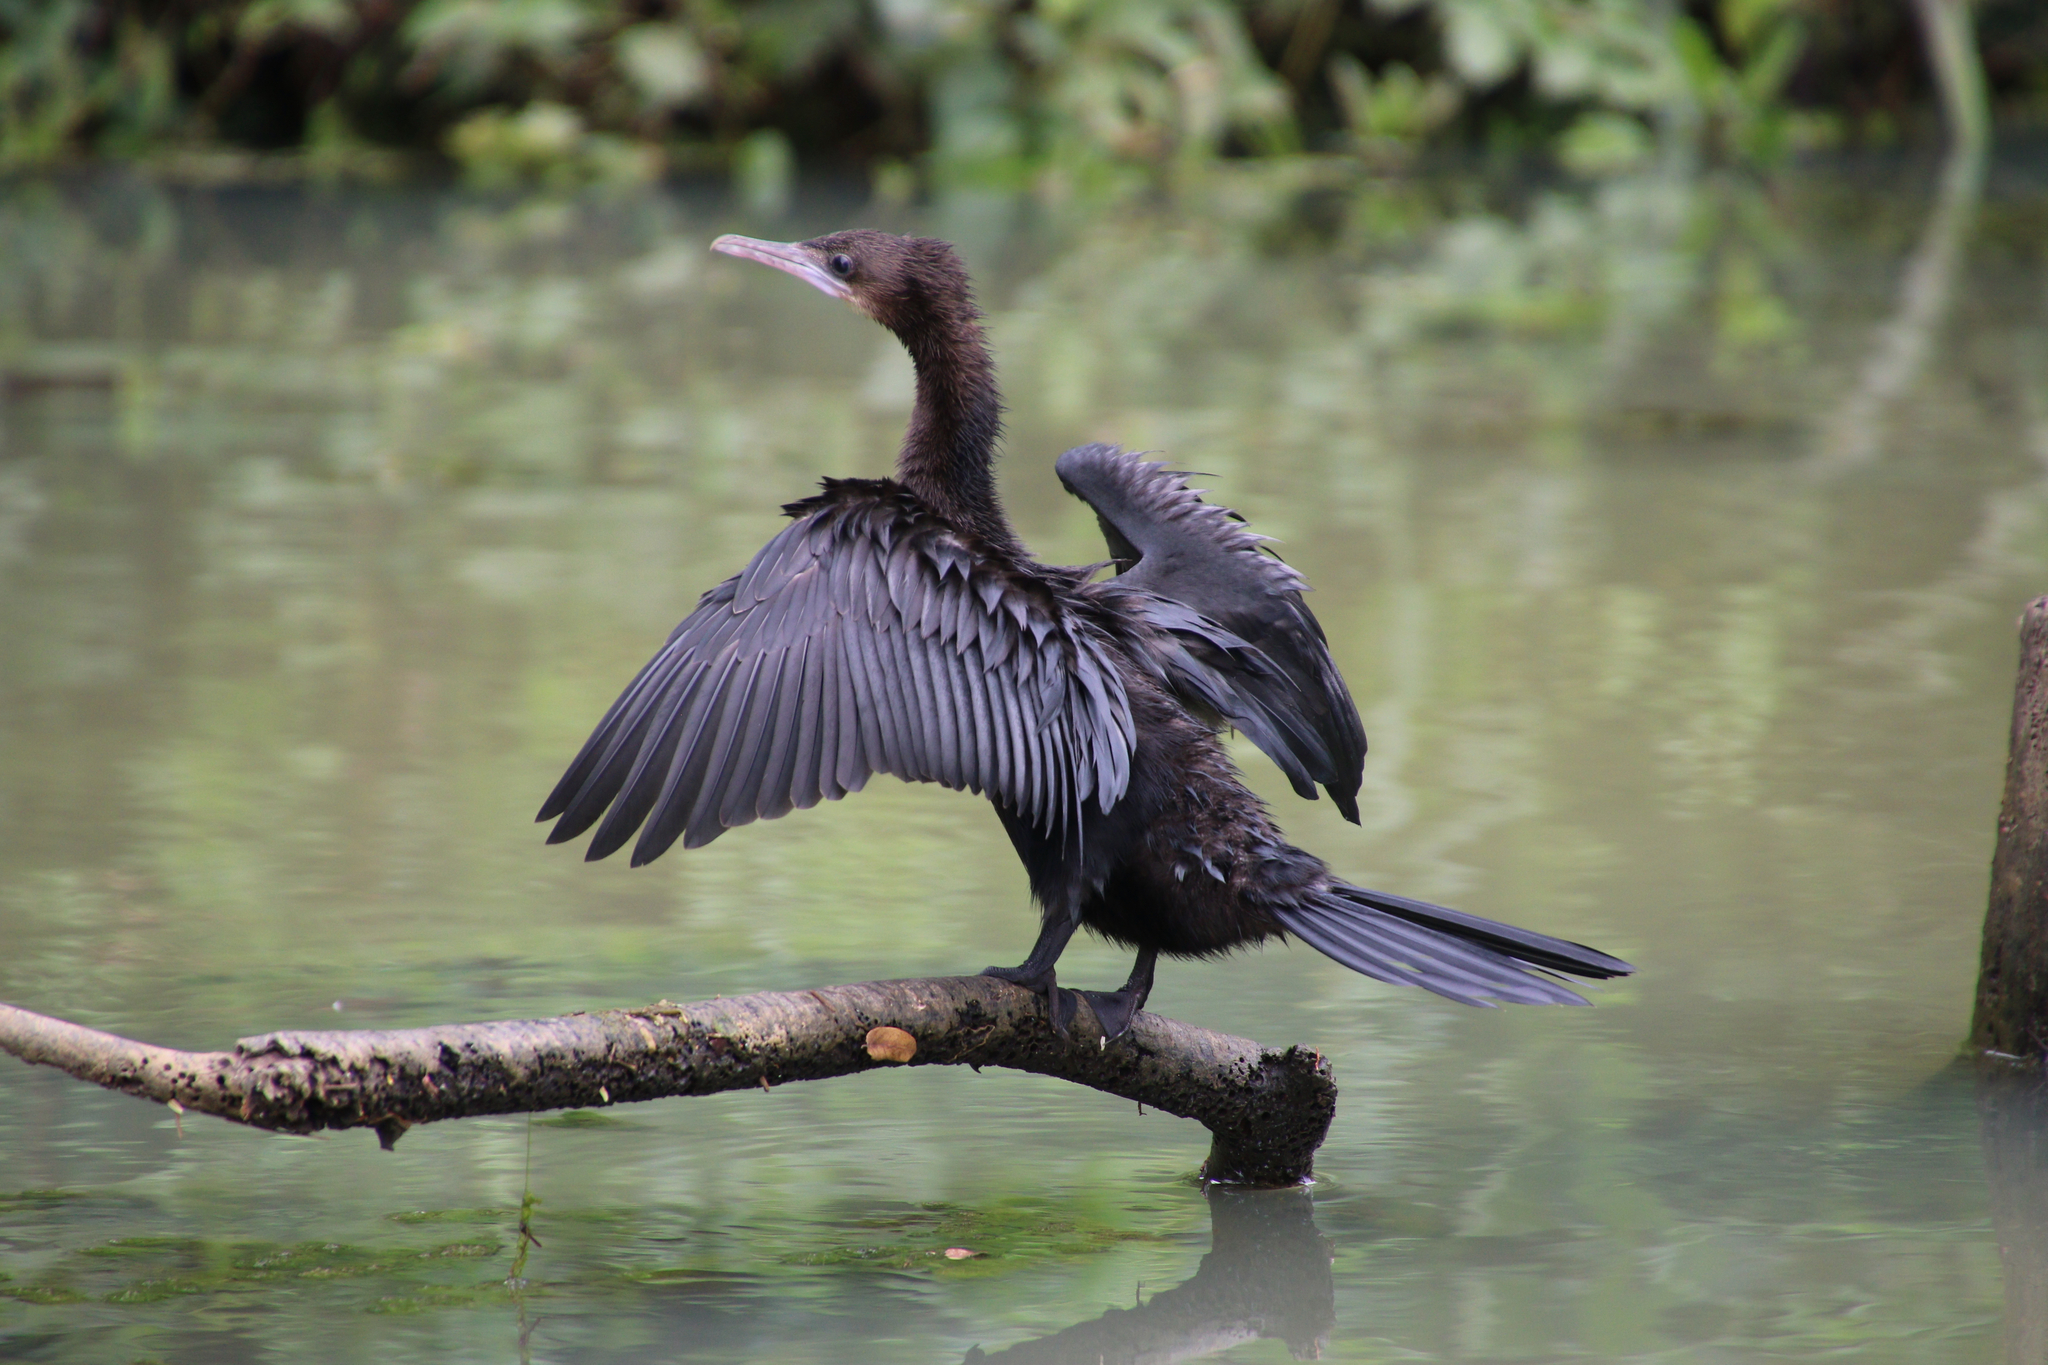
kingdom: Animalia
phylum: Chordata
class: Aves
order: Suliformes
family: Phalacrocoracidae
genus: Microcarbo
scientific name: Microcarbo niger
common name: Little cormorant
